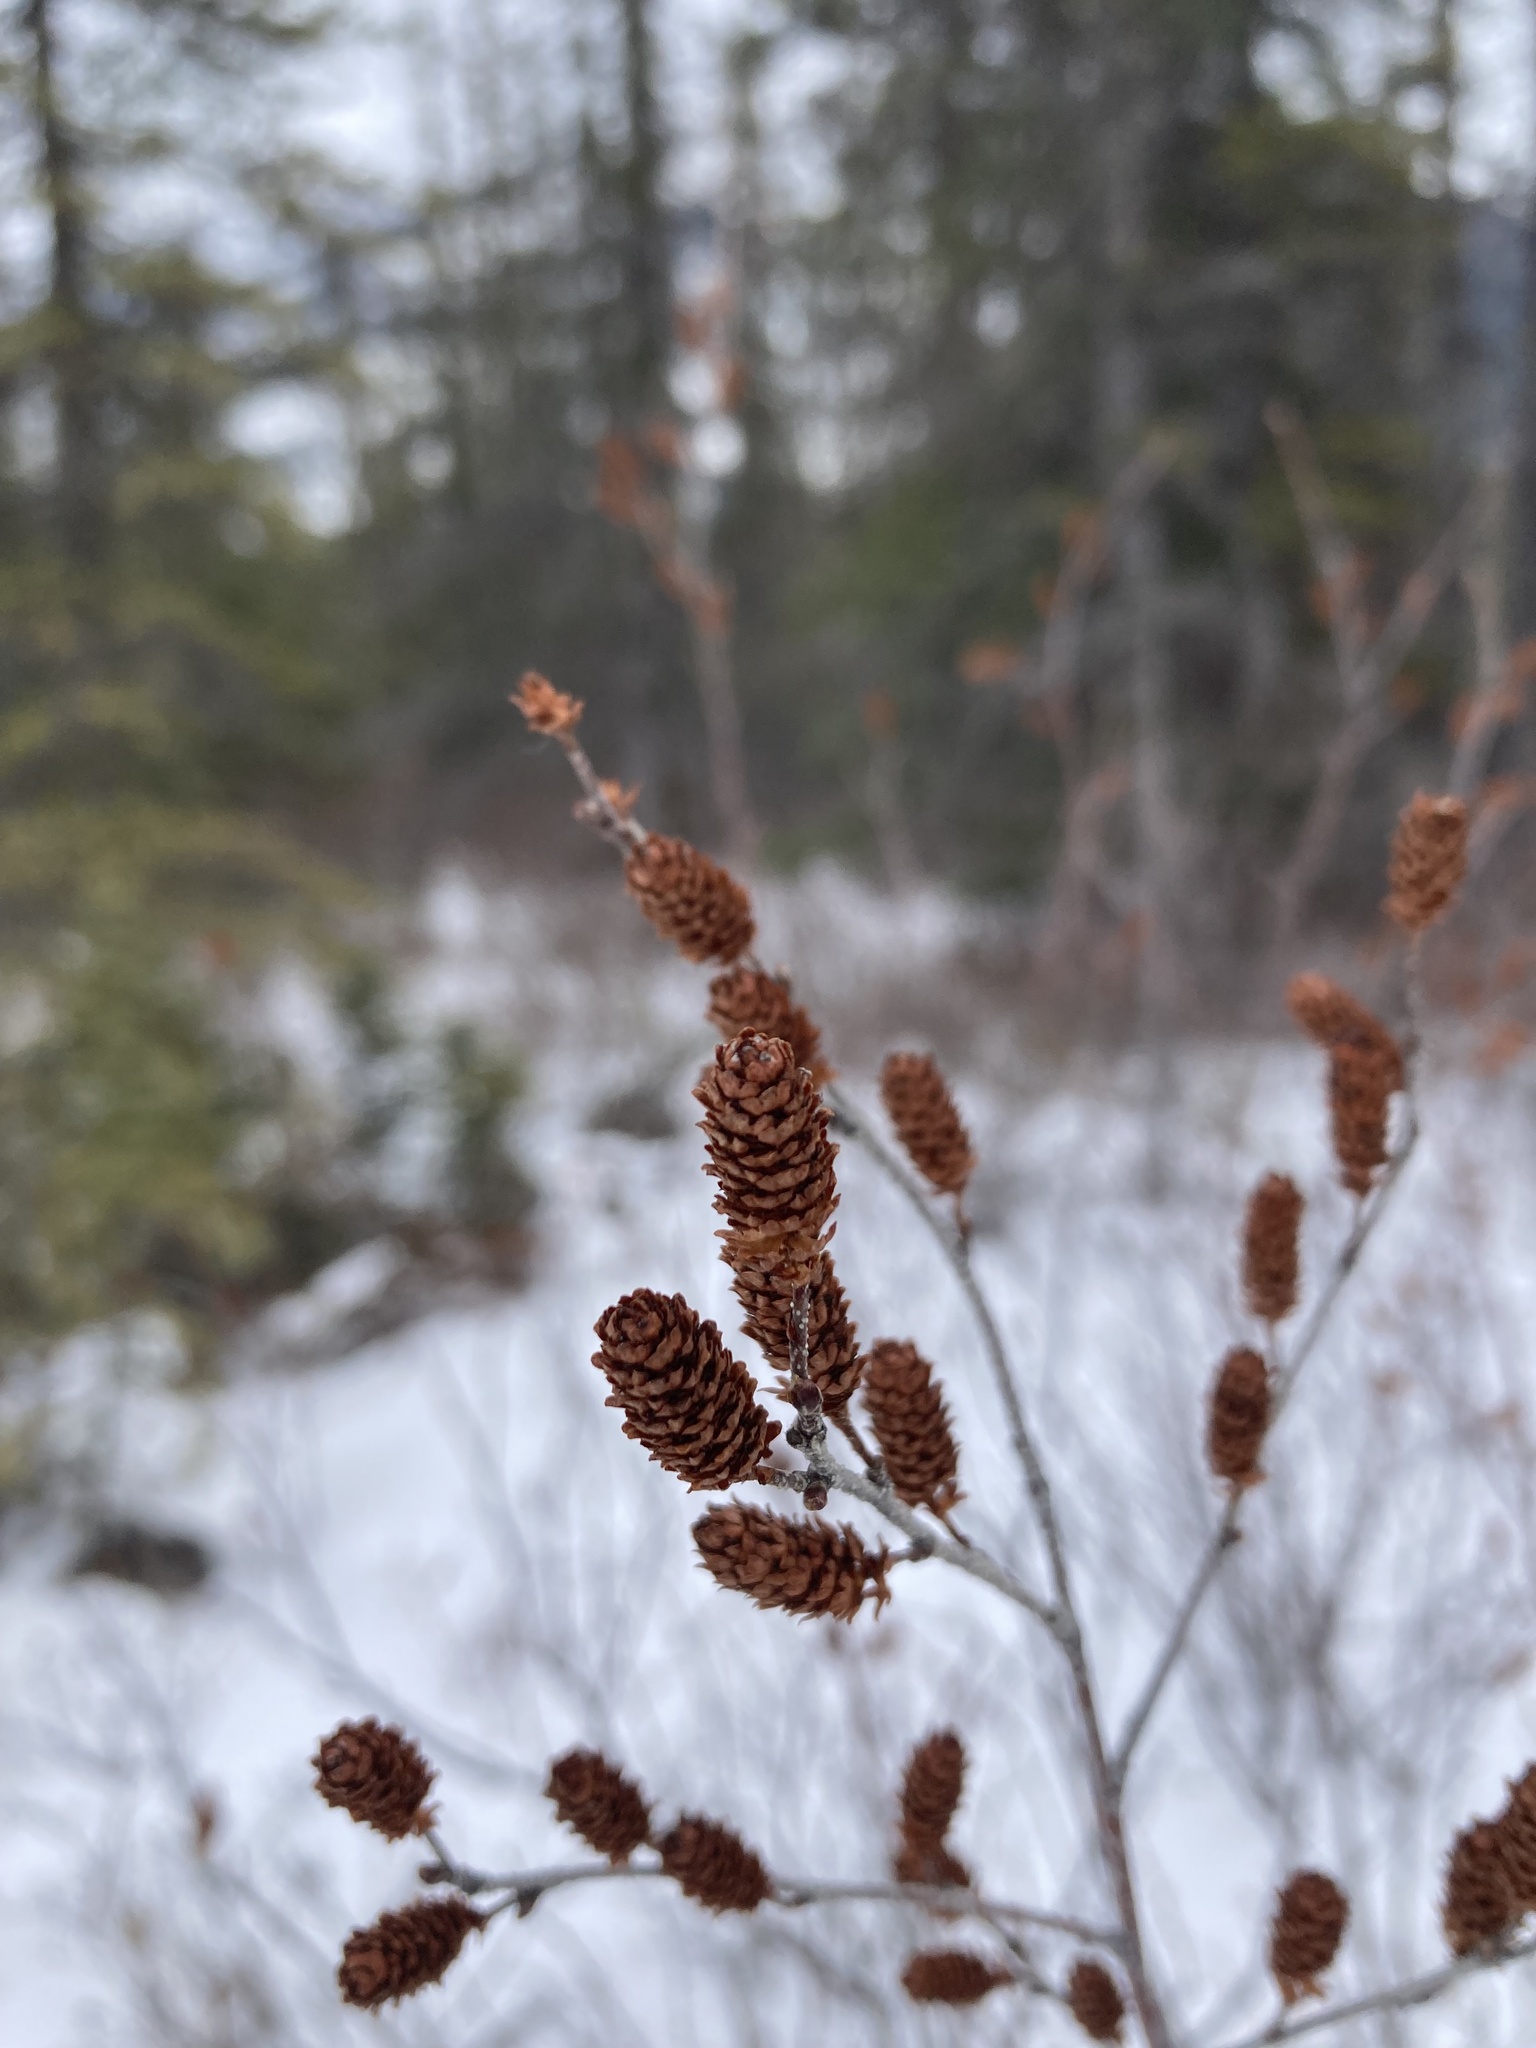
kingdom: Plantae
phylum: Tracheophyta
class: Magnoliopsida
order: Fagales
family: Betulaceae
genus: Betula
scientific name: Betula pumila
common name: Bog birch
